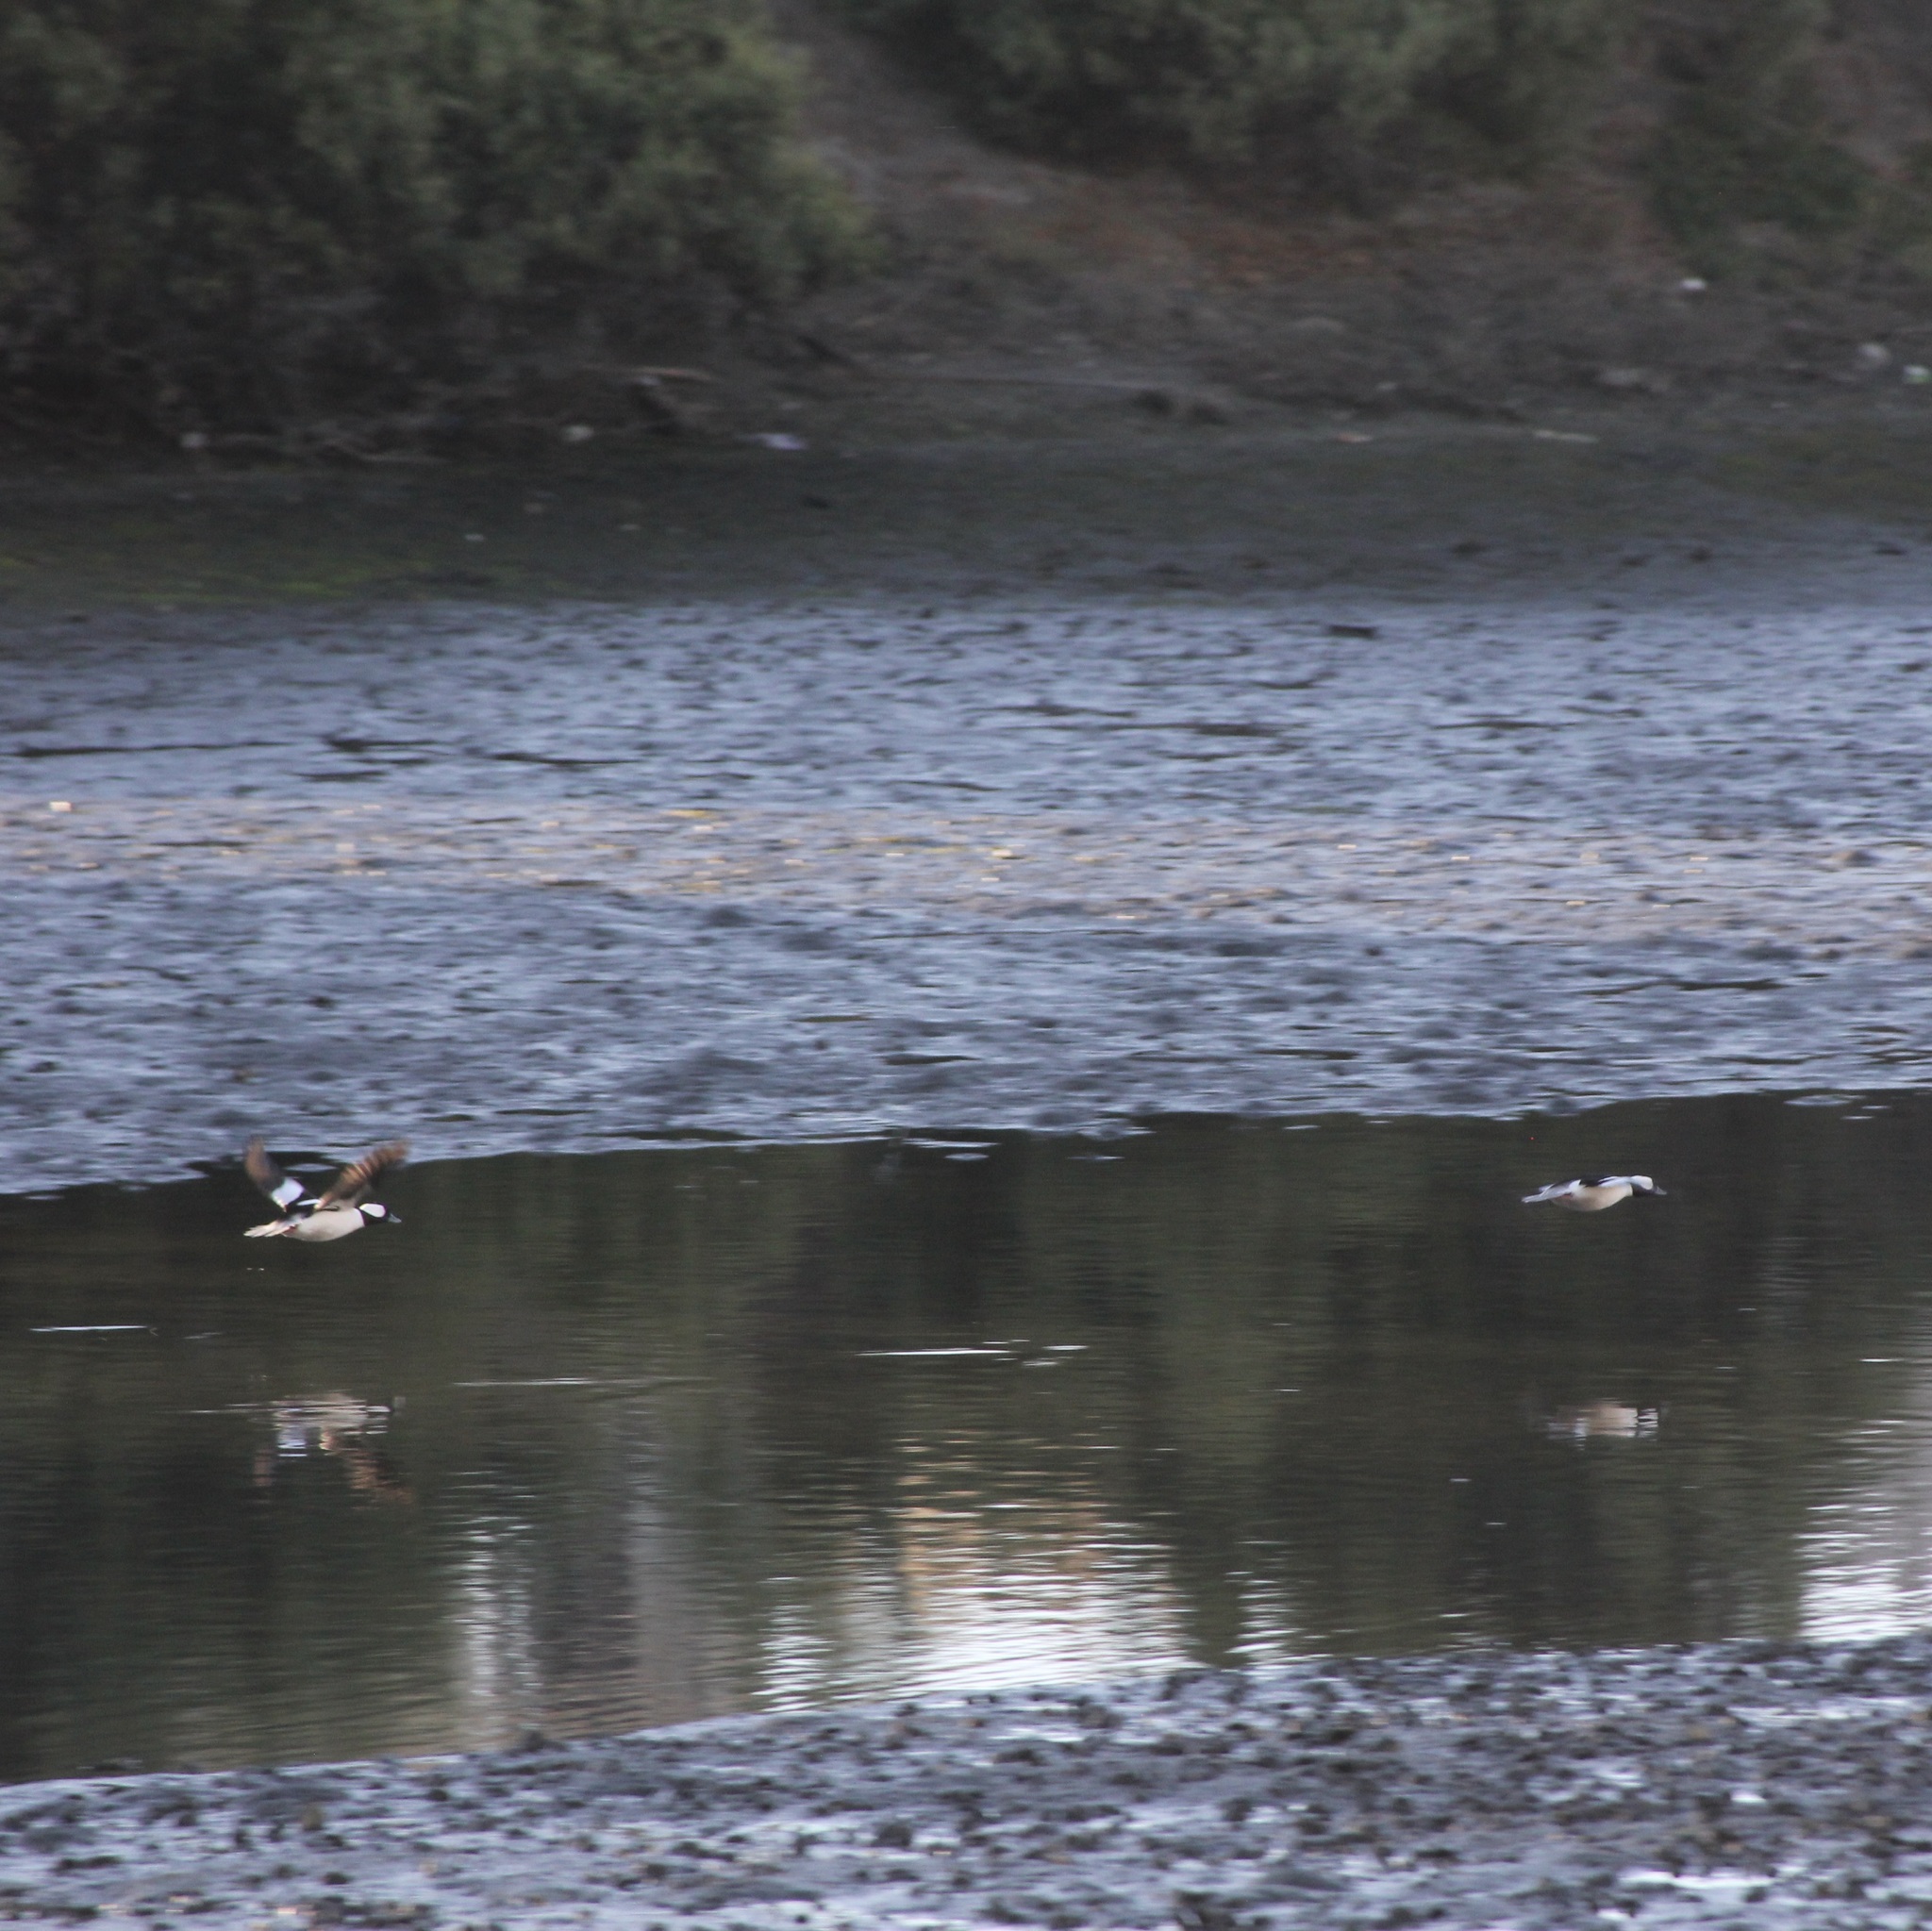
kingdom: Animalia
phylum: Chordata
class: Aves
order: Anseriformes
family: Anatidae
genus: Bucephala
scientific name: Bucephala albeola
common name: Bufflehead
